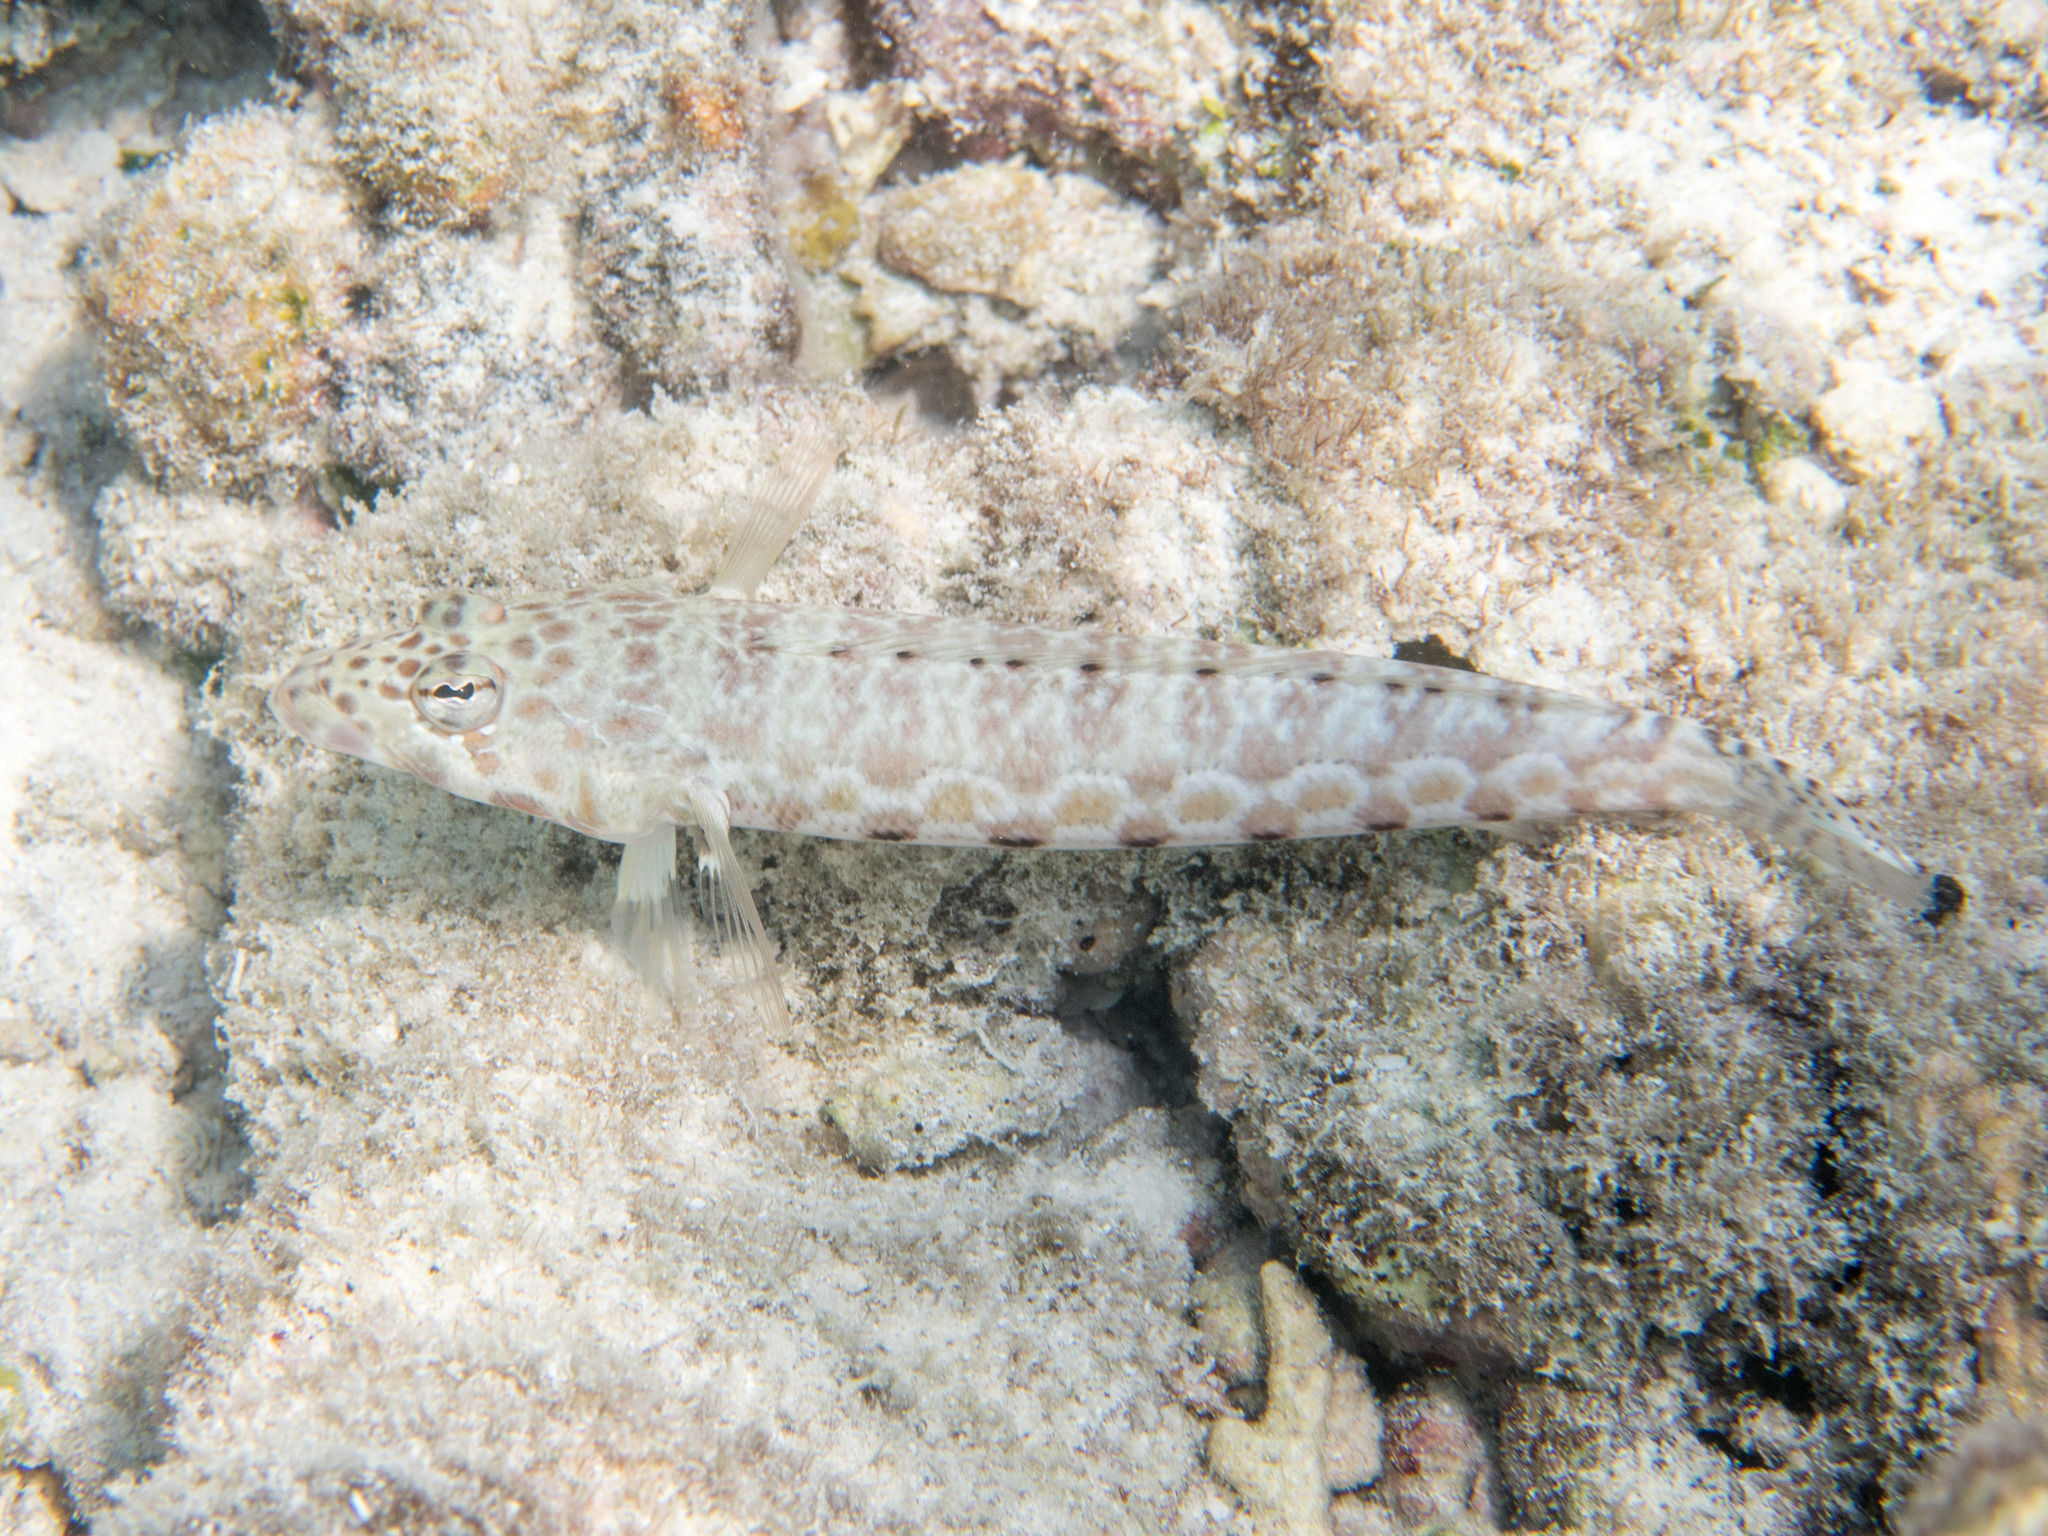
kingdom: Animalia
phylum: Chordata
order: Perciformes
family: Pinguipedidae
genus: Parapercis
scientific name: Parapercis millepunctata
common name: Black-dotted sandperch
